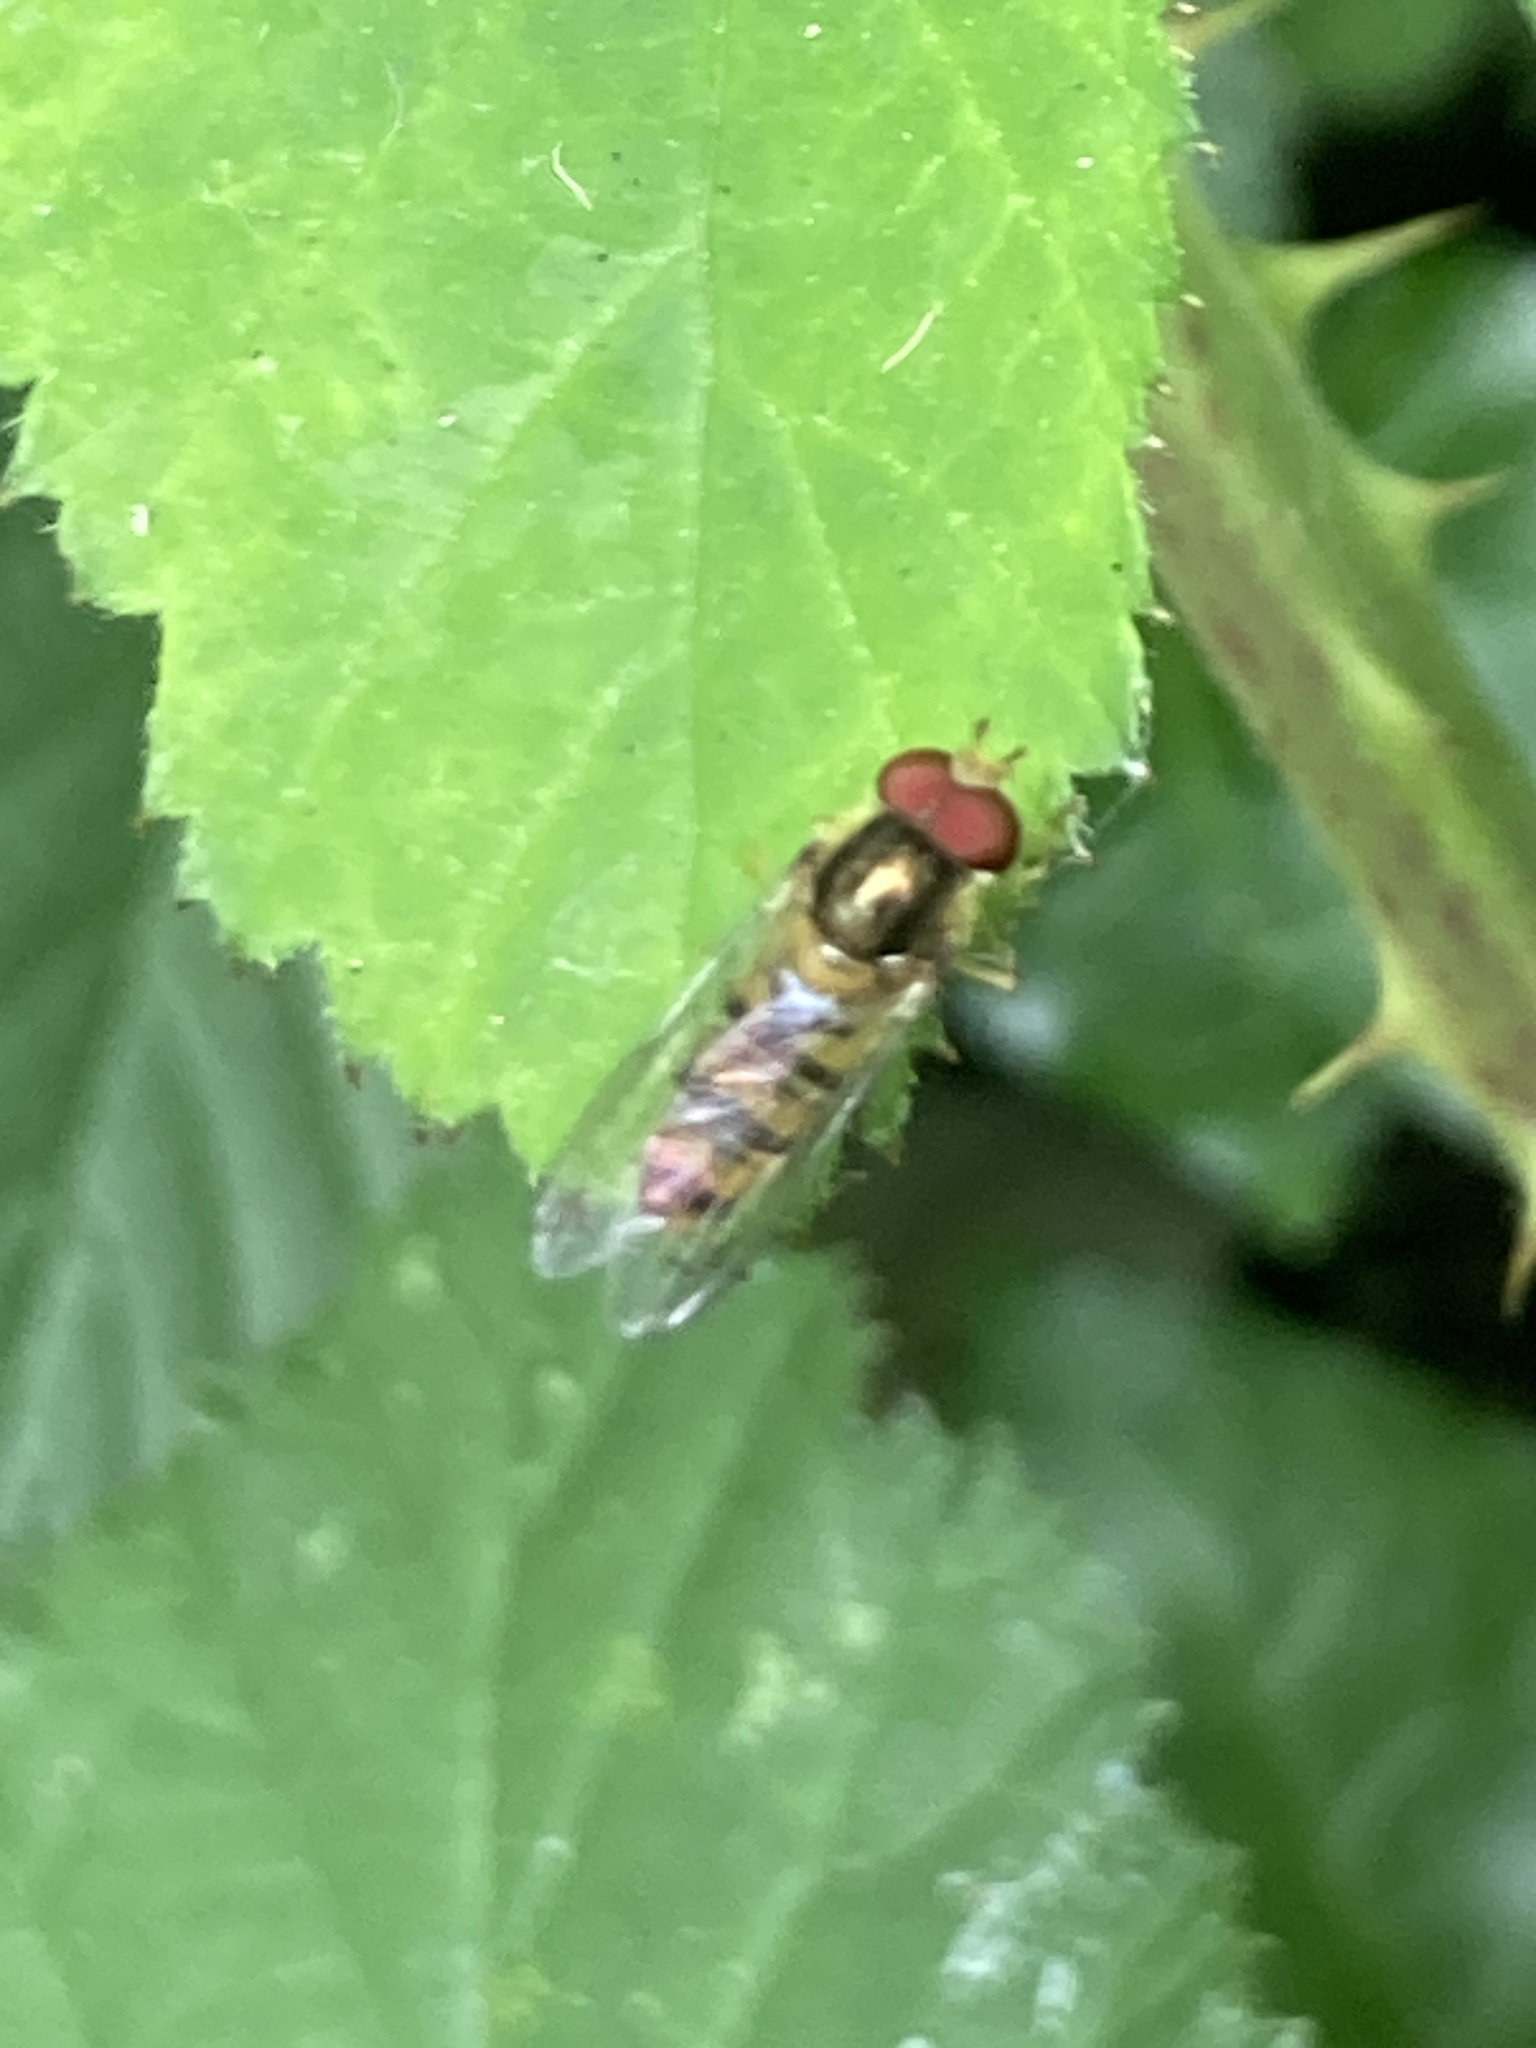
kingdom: Animalia
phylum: Arthropoda
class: Insecta
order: Diptera
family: Syrphidae
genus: Episyrphus
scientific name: Episyrphus balteatus
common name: Marmalade hoverfly
